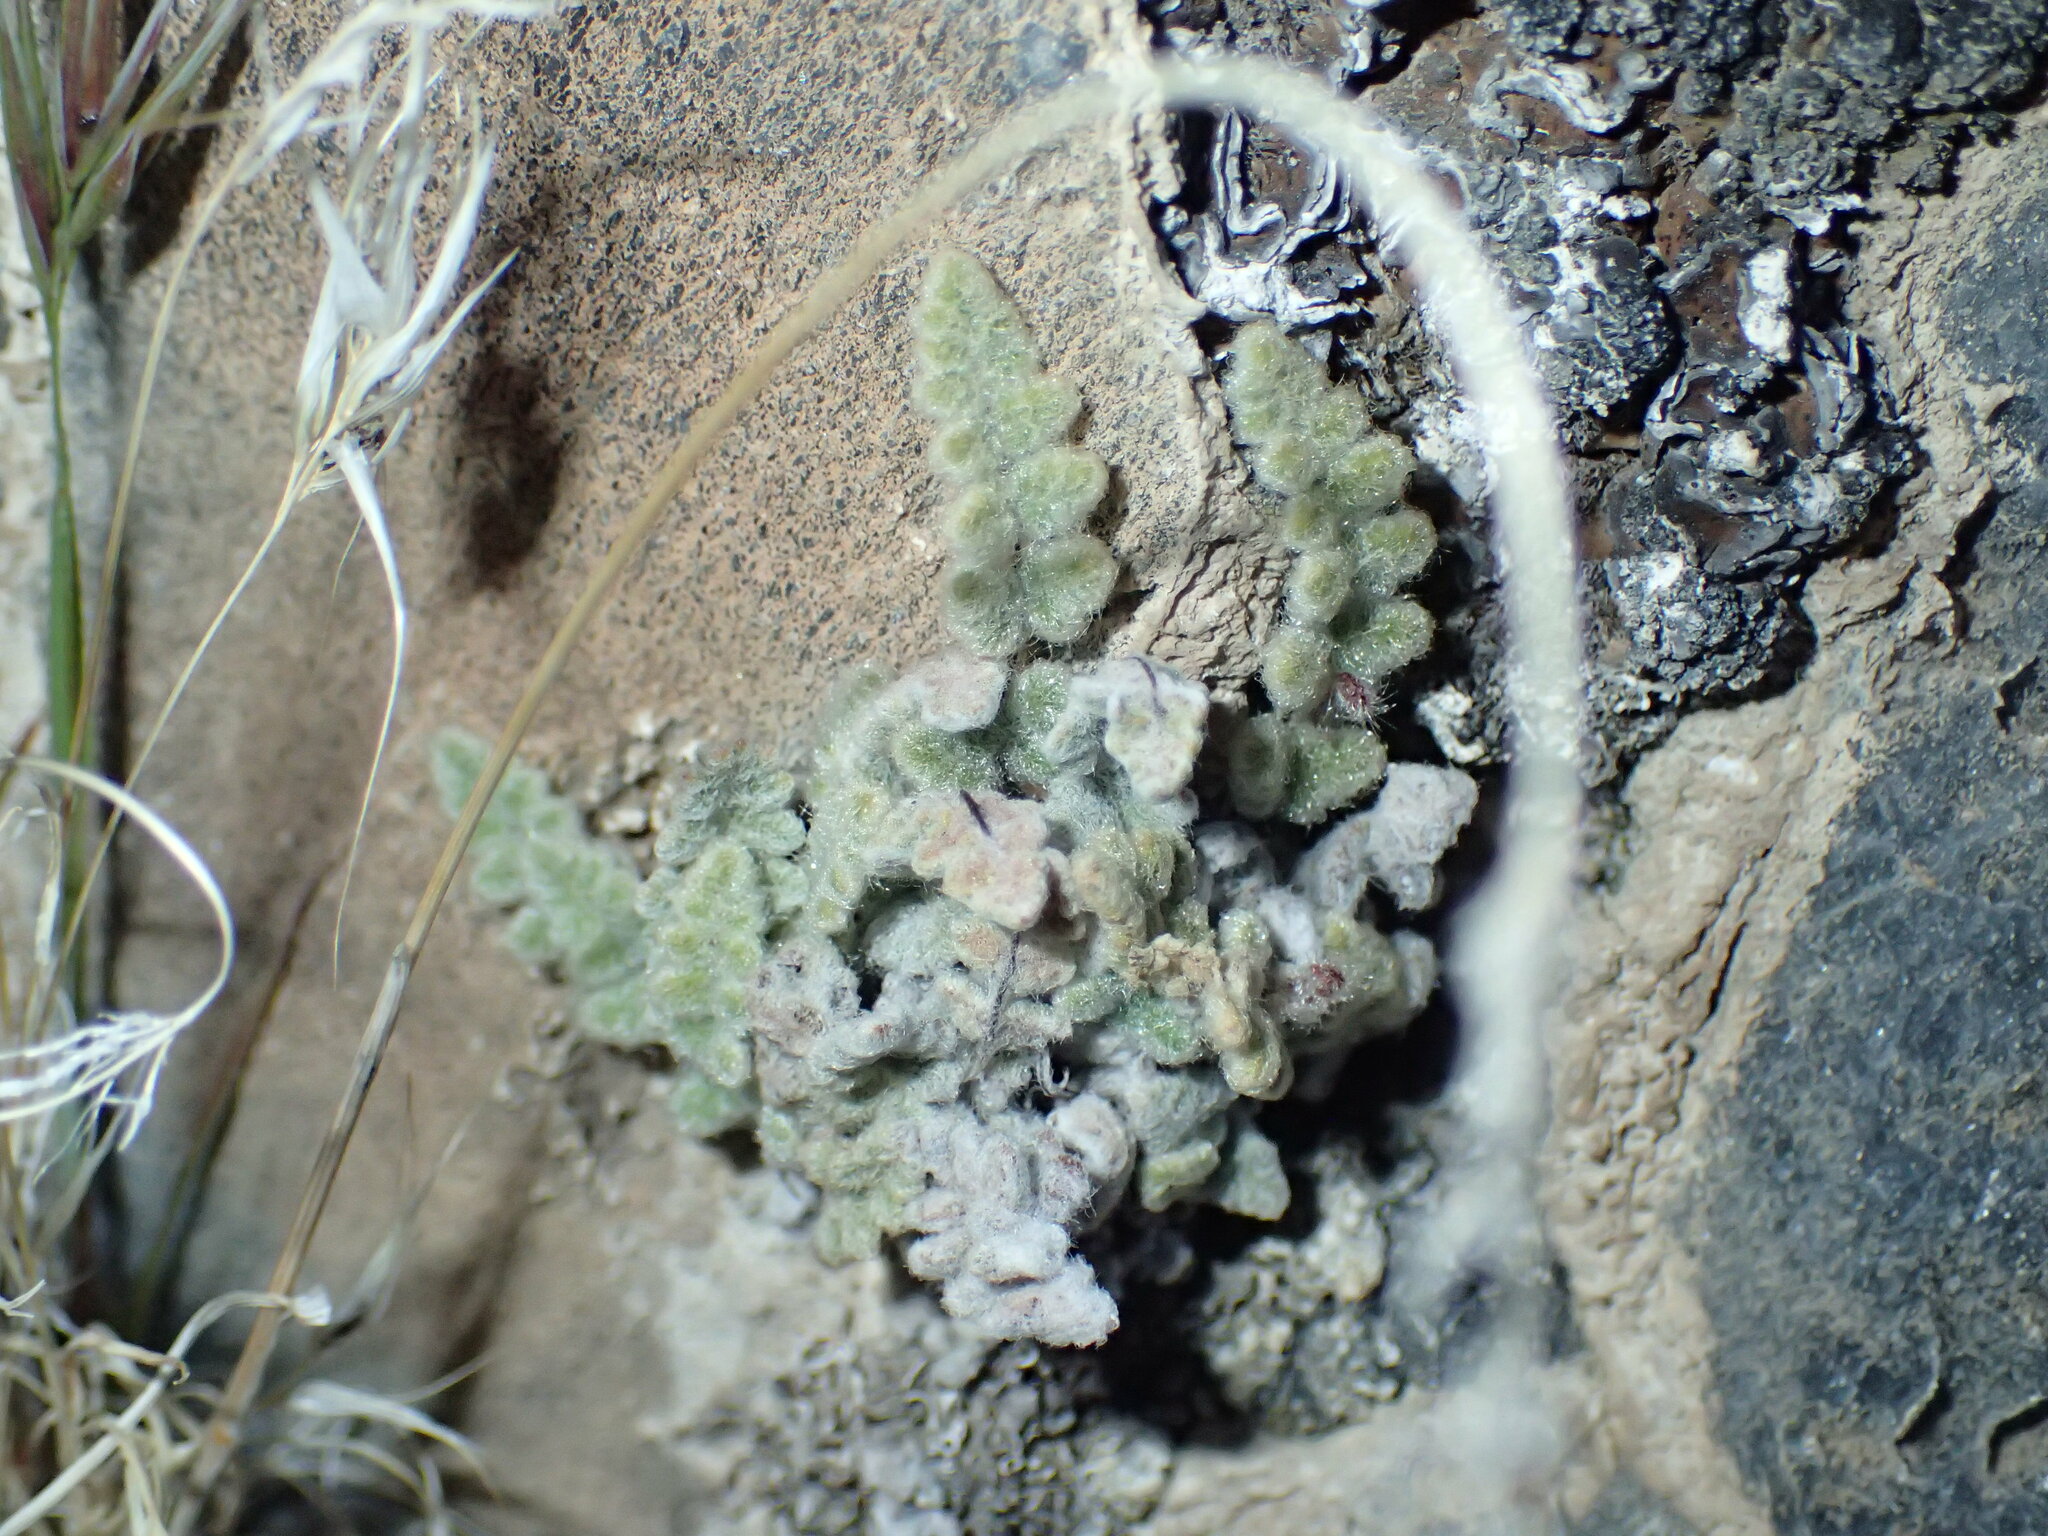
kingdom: Plantae
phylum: Tracheophyta
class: Polypodiopsida
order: Polypodiales
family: Pteridaceae
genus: Myriopteris
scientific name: Myriopteris parryi
